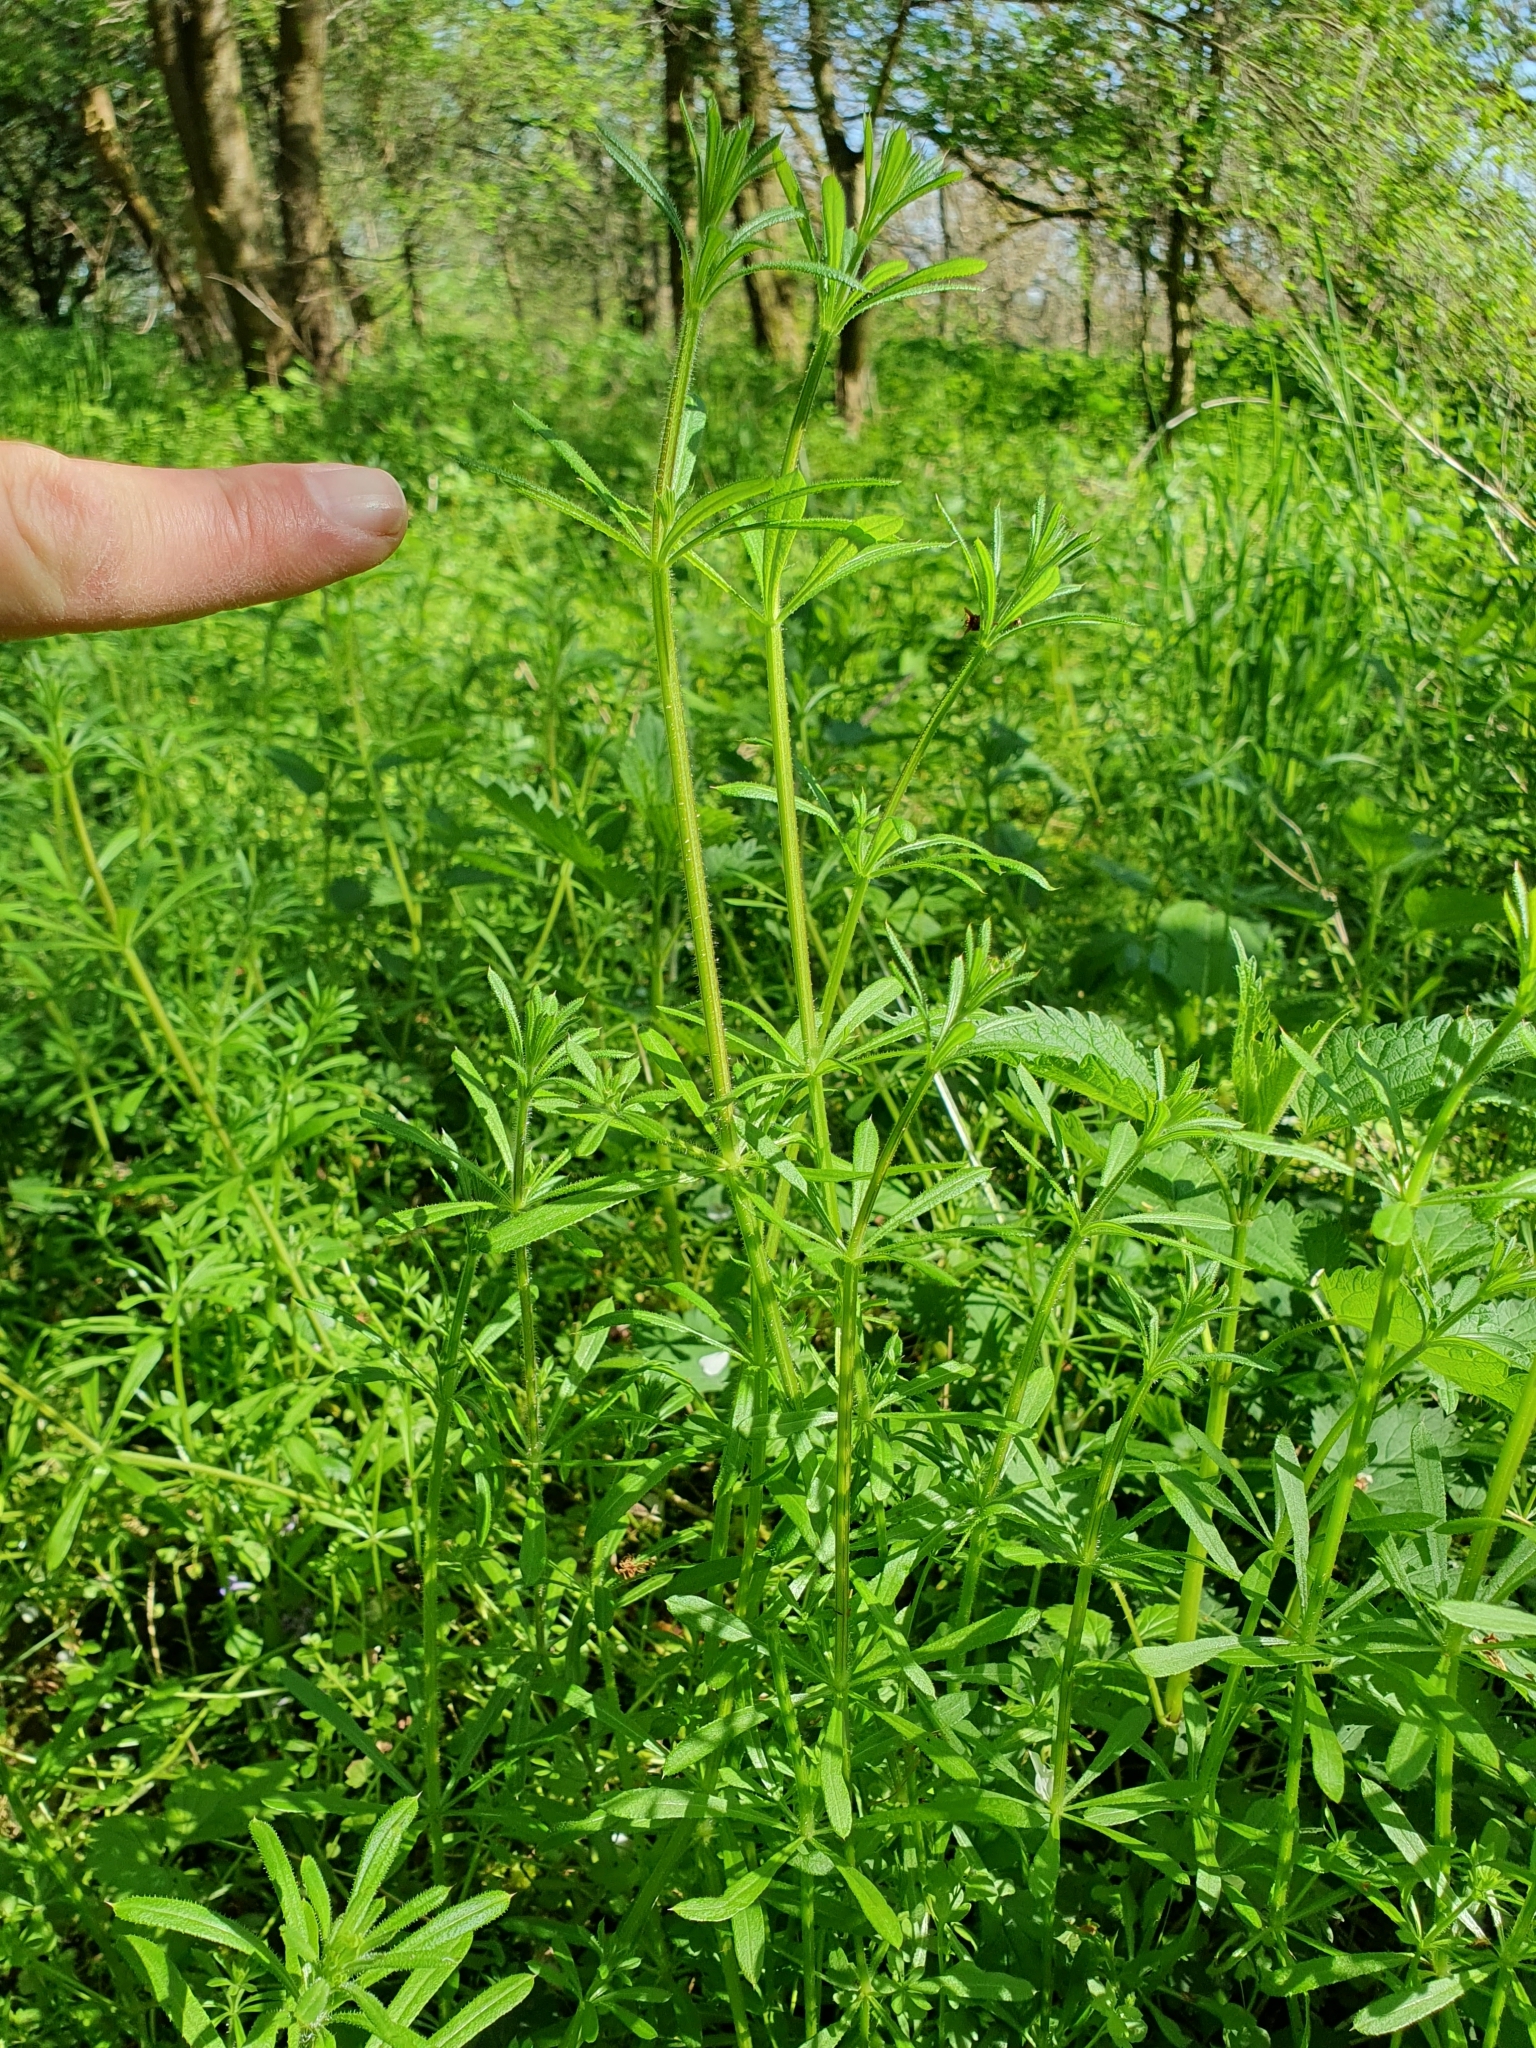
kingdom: Plantae
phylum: Tracheophyta
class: Magnoliopsida
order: Gentianales
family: Rubiaceae
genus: Galium
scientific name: Galium aparine
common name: Cleavers
